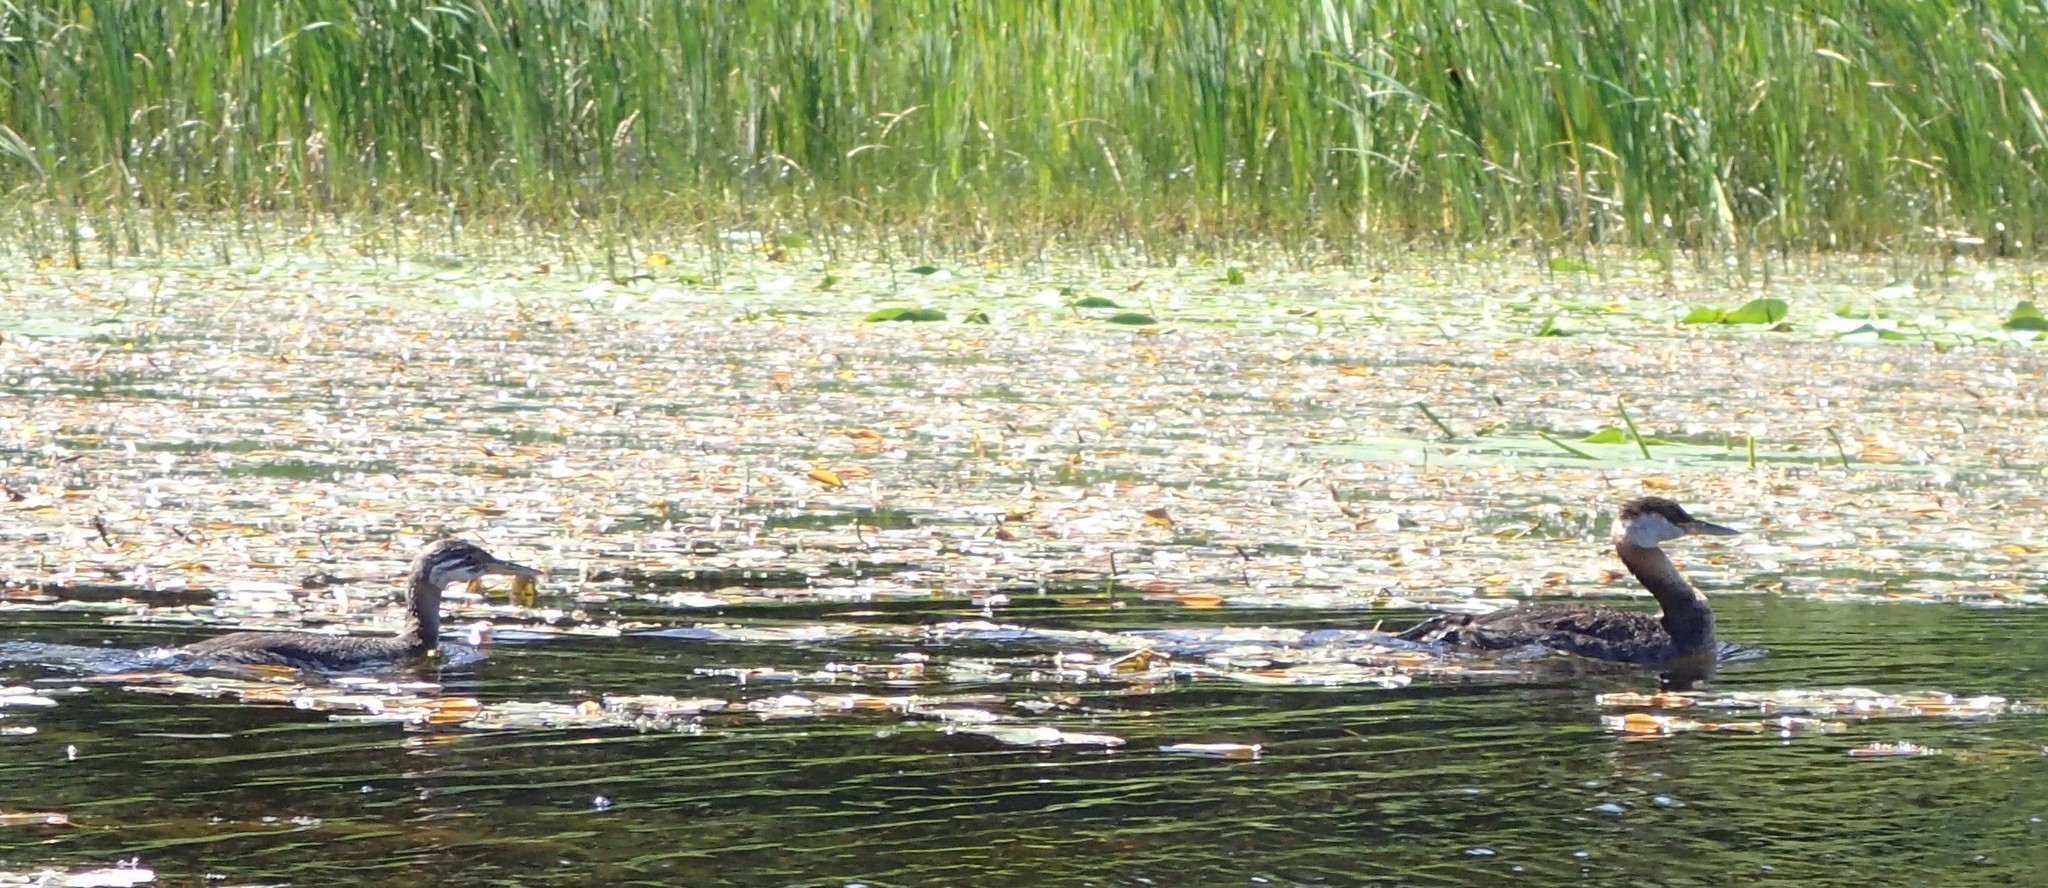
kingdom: Animalia
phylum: Chordata
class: Aves
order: Podicipediformes
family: Podicipedidae
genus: Podiceps
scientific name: Podiceps grisegena
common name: Red-necked grebe
